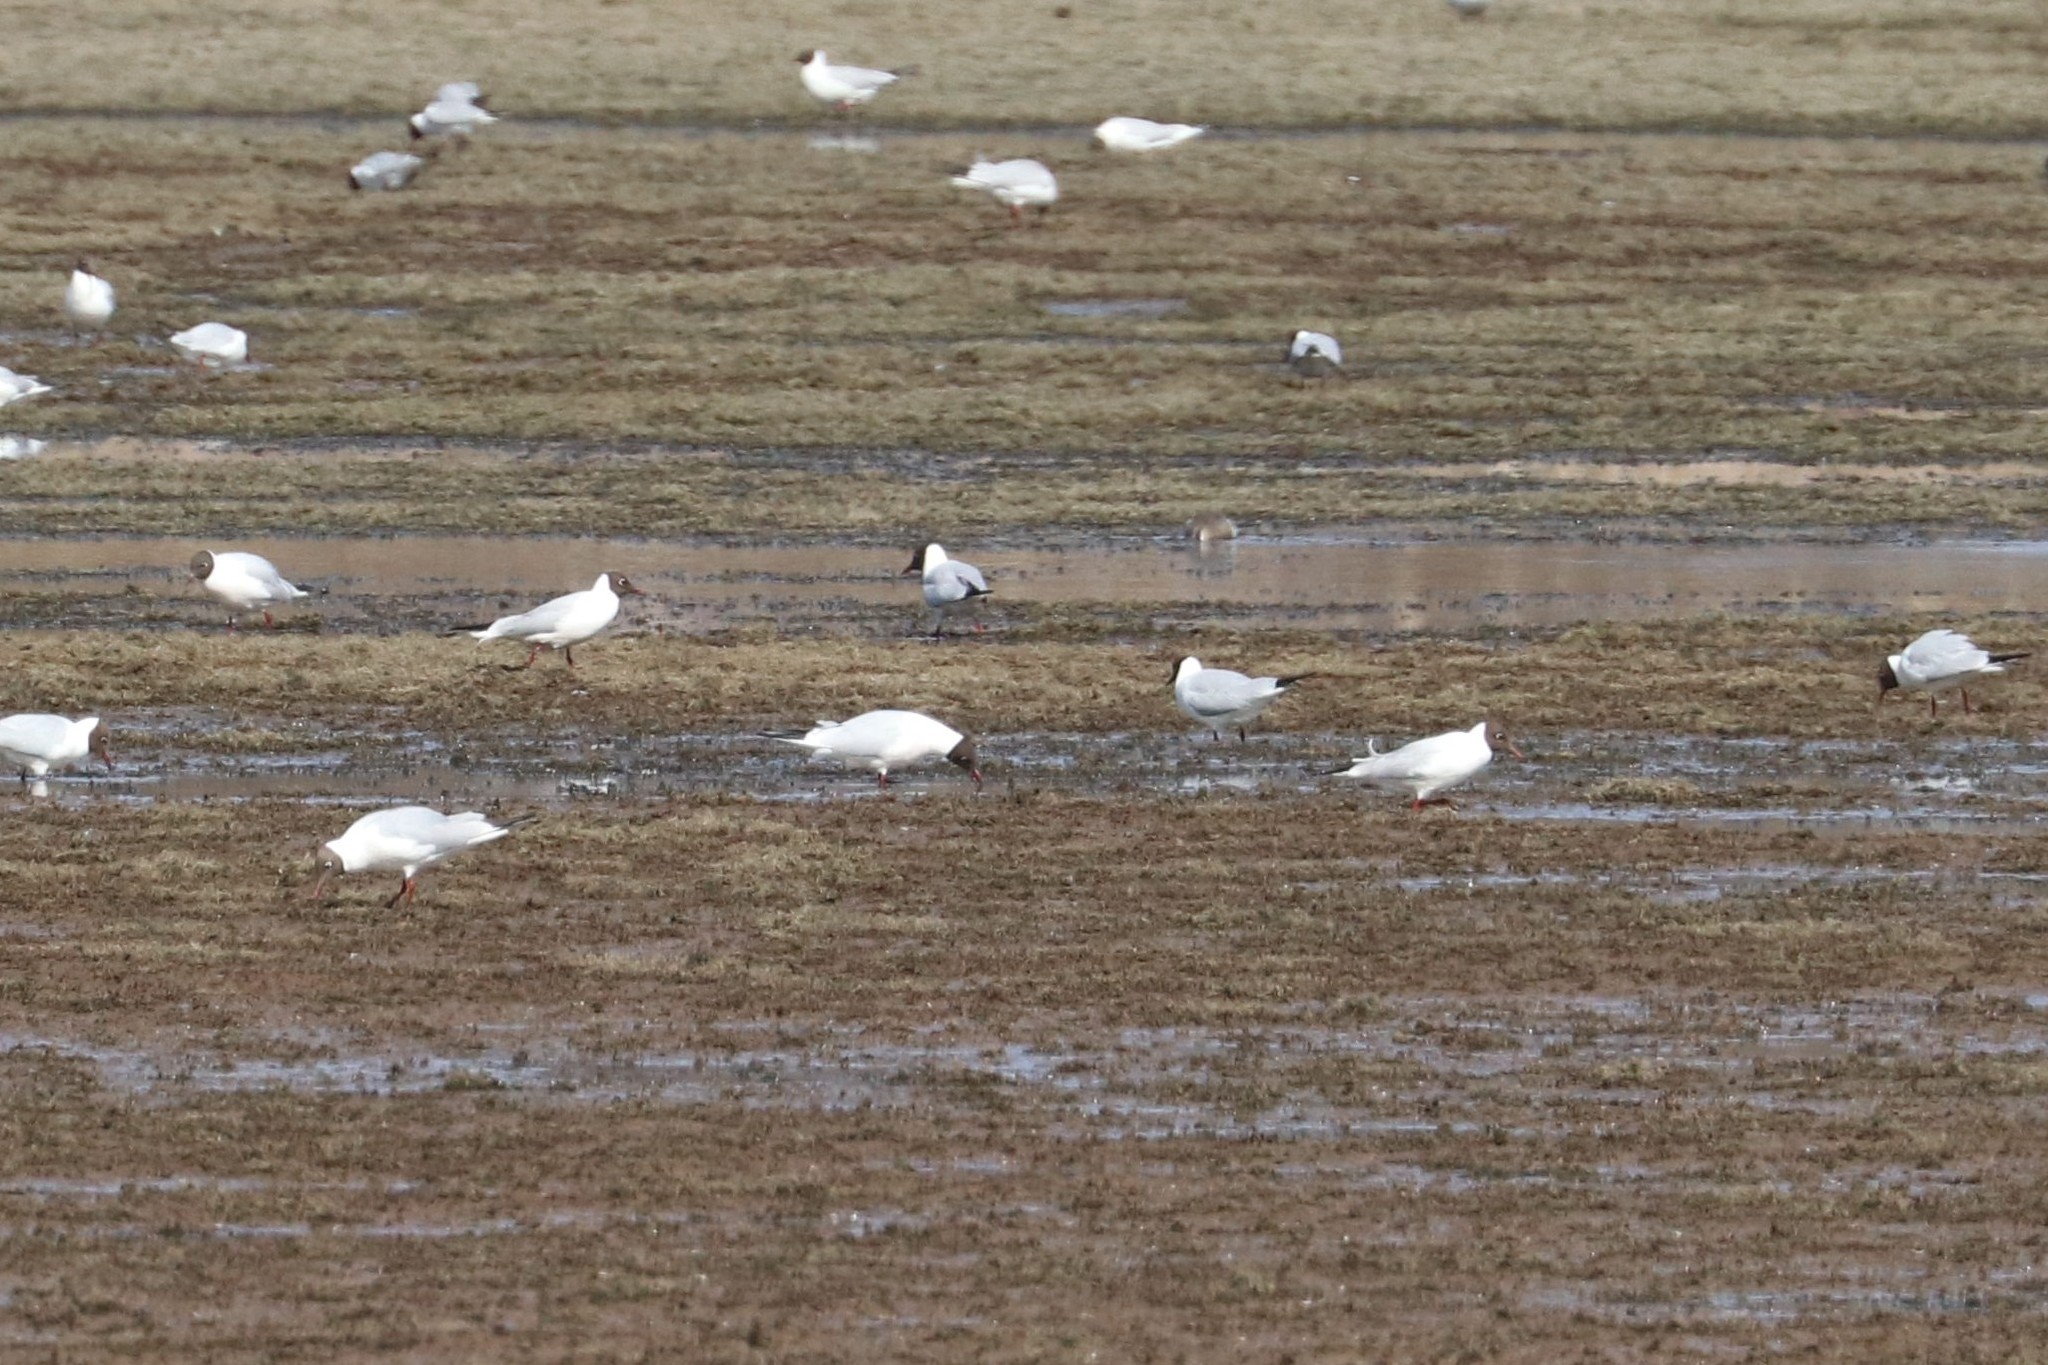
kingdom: Animalia
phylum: Chordata
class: Aves
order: Charadriiformes
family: Laridae
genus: Chroicocephalus
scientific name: Chroicocephalus ridibundus
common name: Black-headed gull
